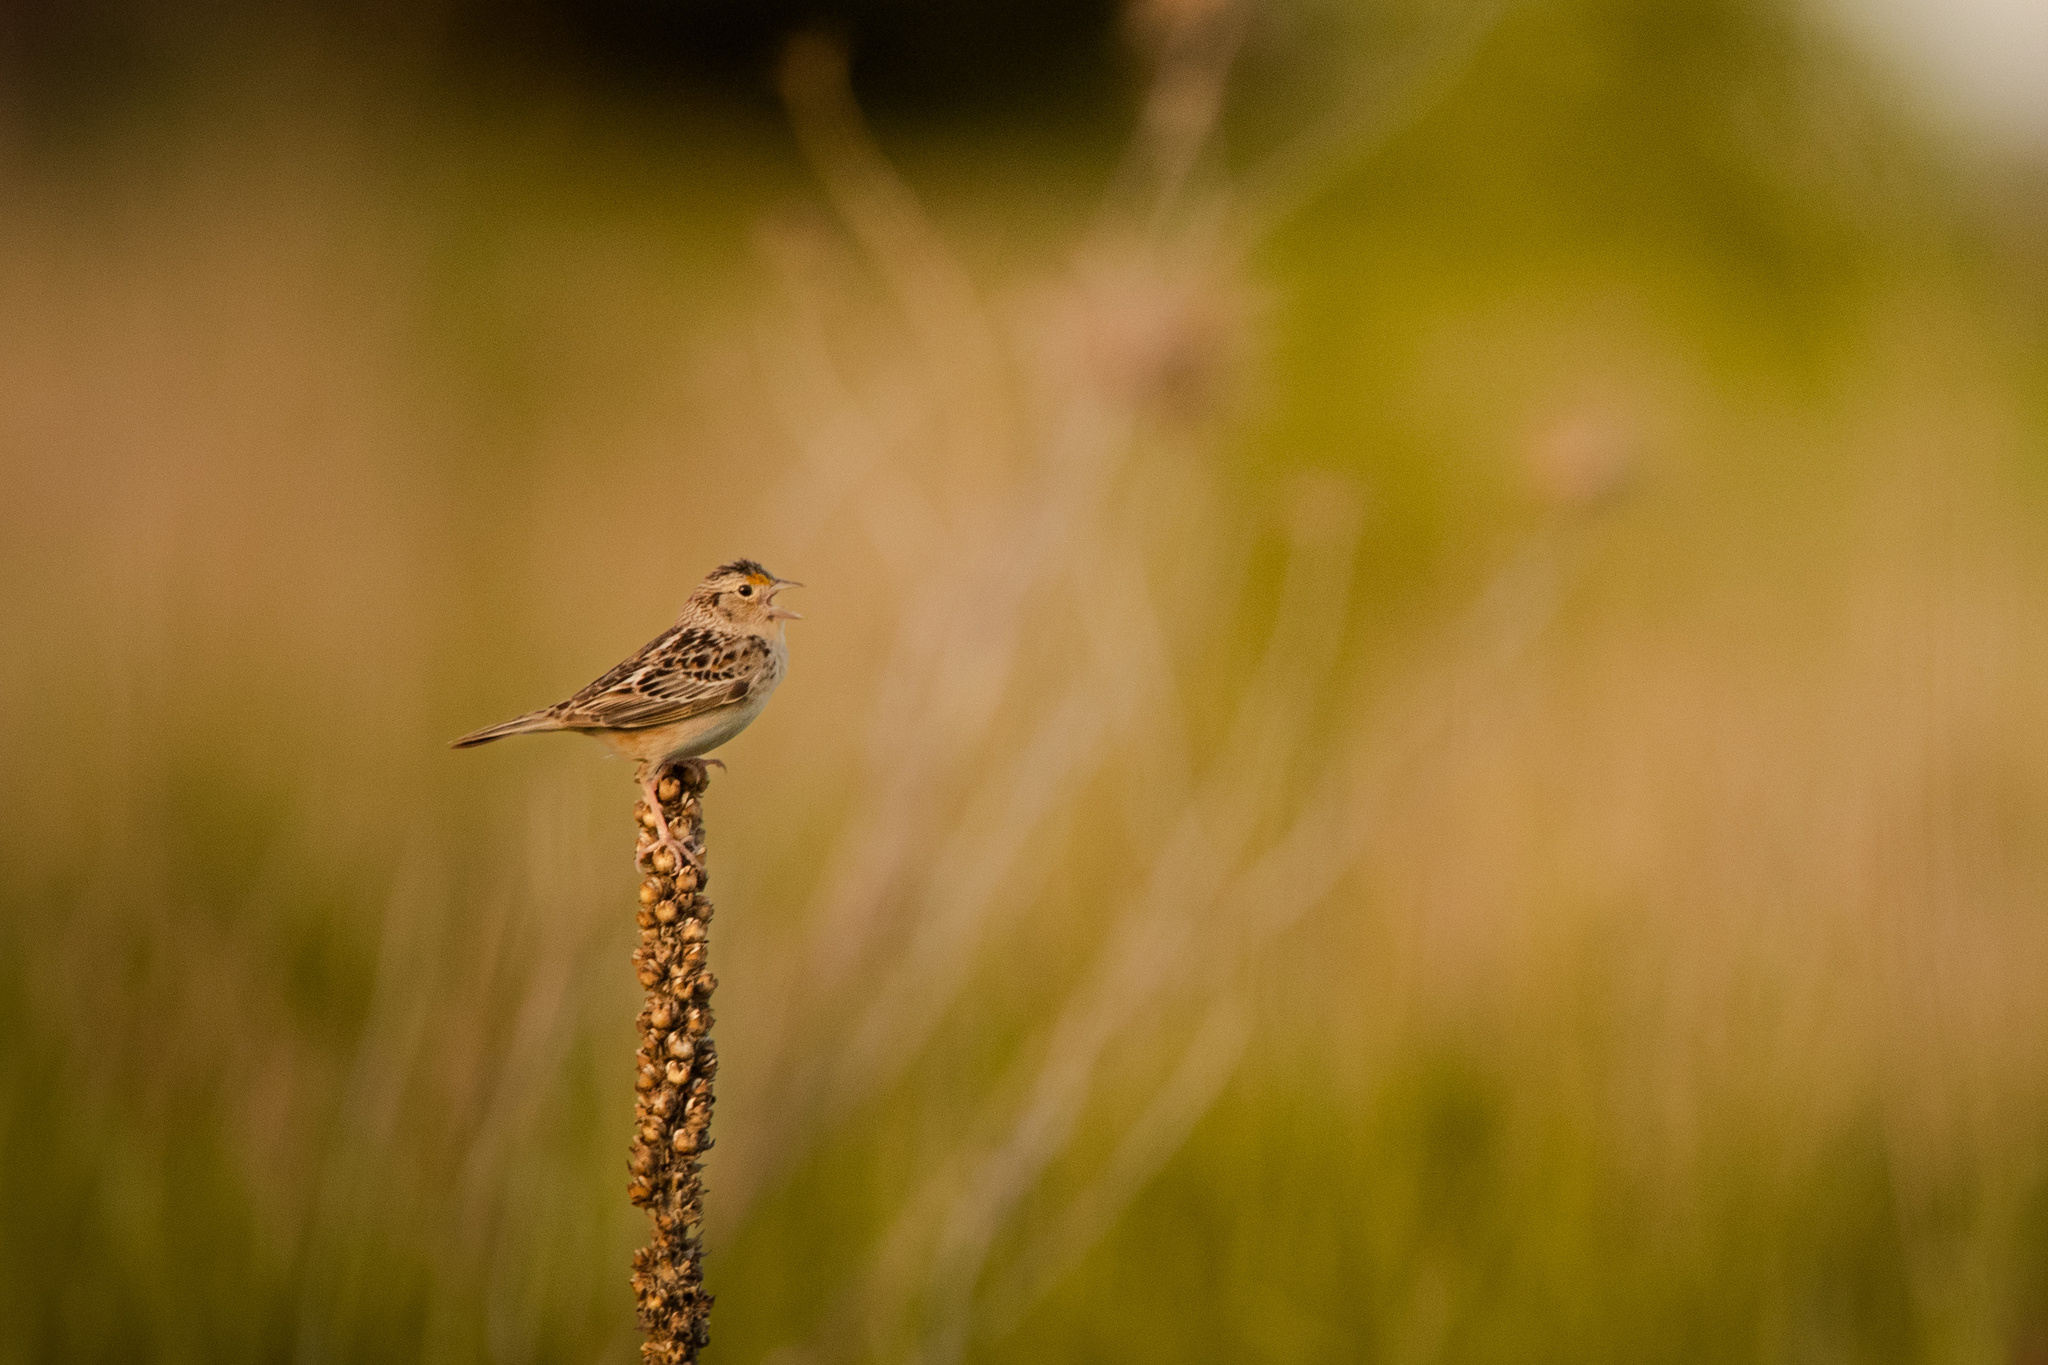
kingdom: Animalia
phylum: Chordata
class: Aves
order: Passeriformes
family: Passerellidae
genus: Ammodramus
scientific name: Ammodramus savannarum
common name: Grasshopper sparrow
